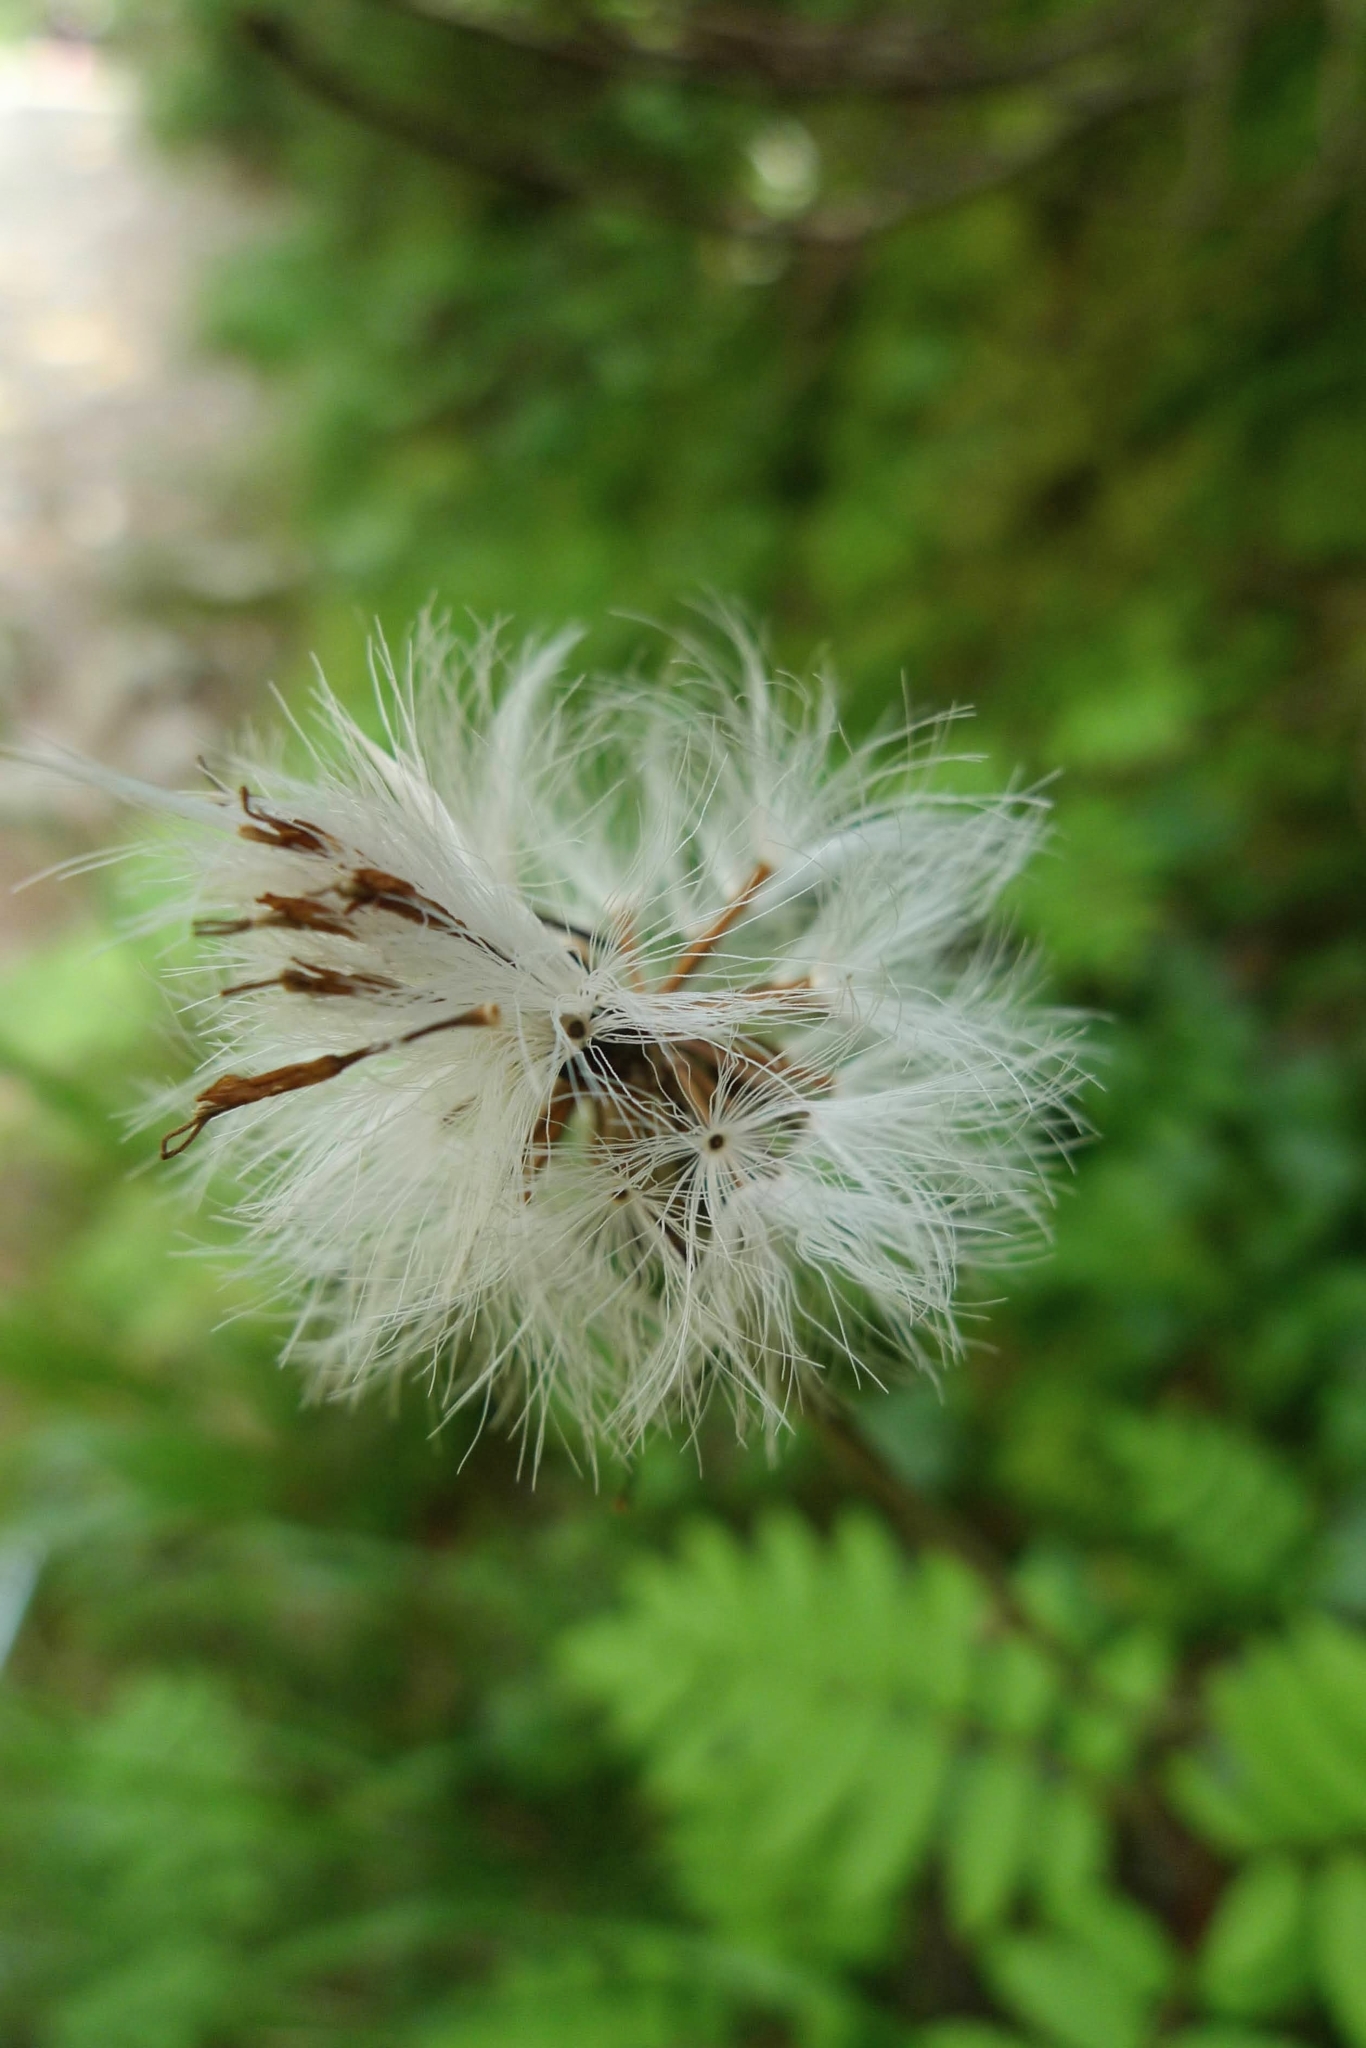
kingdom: Plantae
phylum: Tracheophyta
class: Magnoliopsida
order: Asterales
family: Asteraceae
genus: Homogyne
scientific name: Homogyne alpina
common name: Purple colt's-foot
